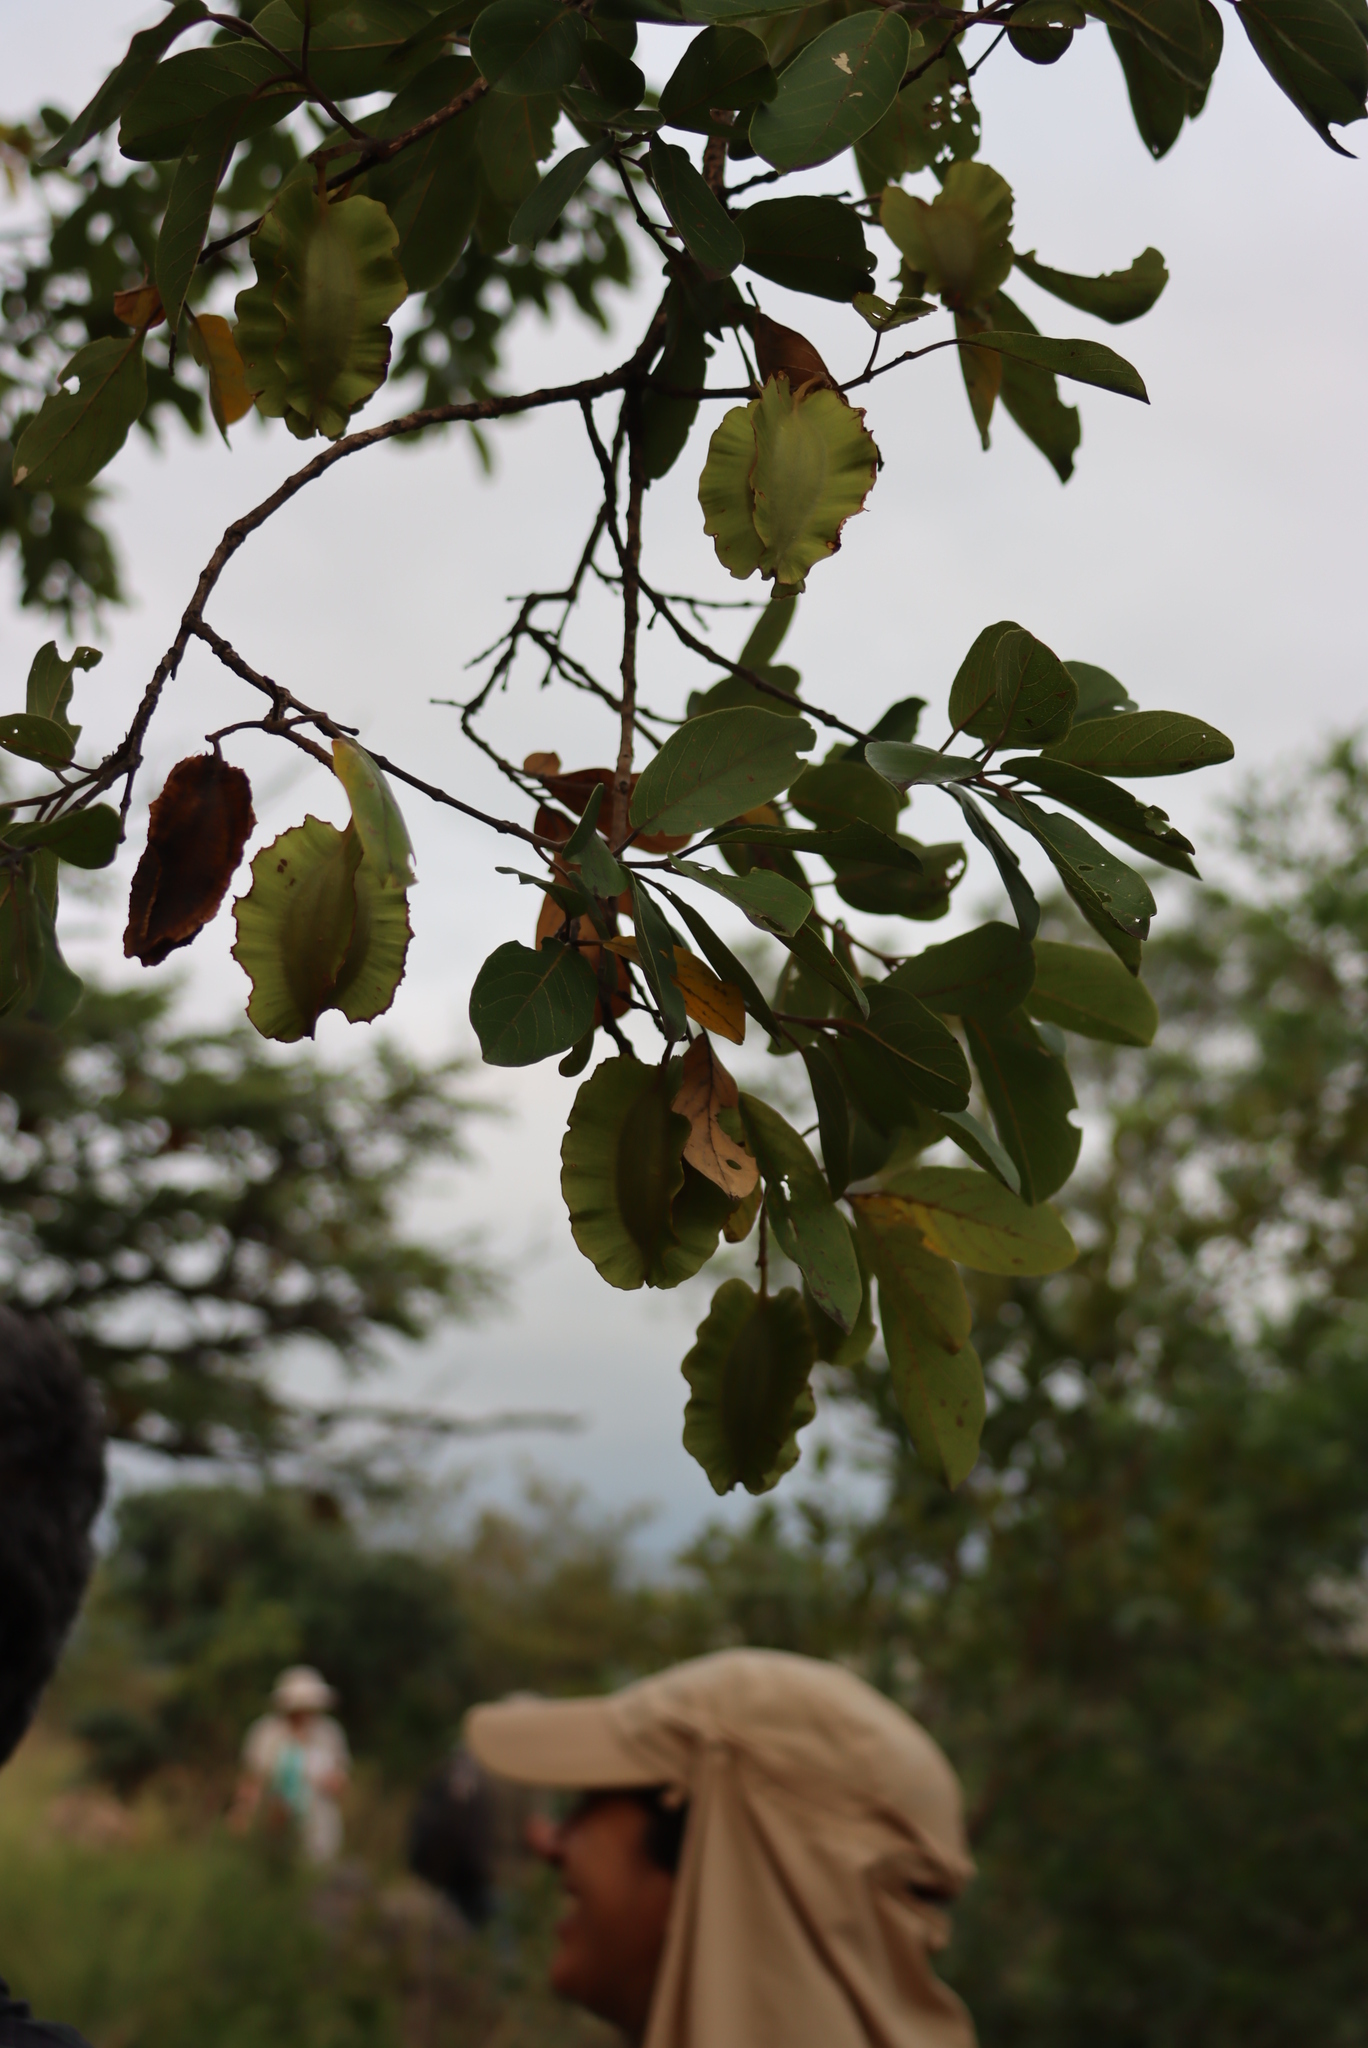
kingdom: Plantae
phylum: Tracheophyta
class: Magnoliopsida
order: Myrtales
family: Combretaceae
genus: Combretum
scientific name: Combretum zeyheri
